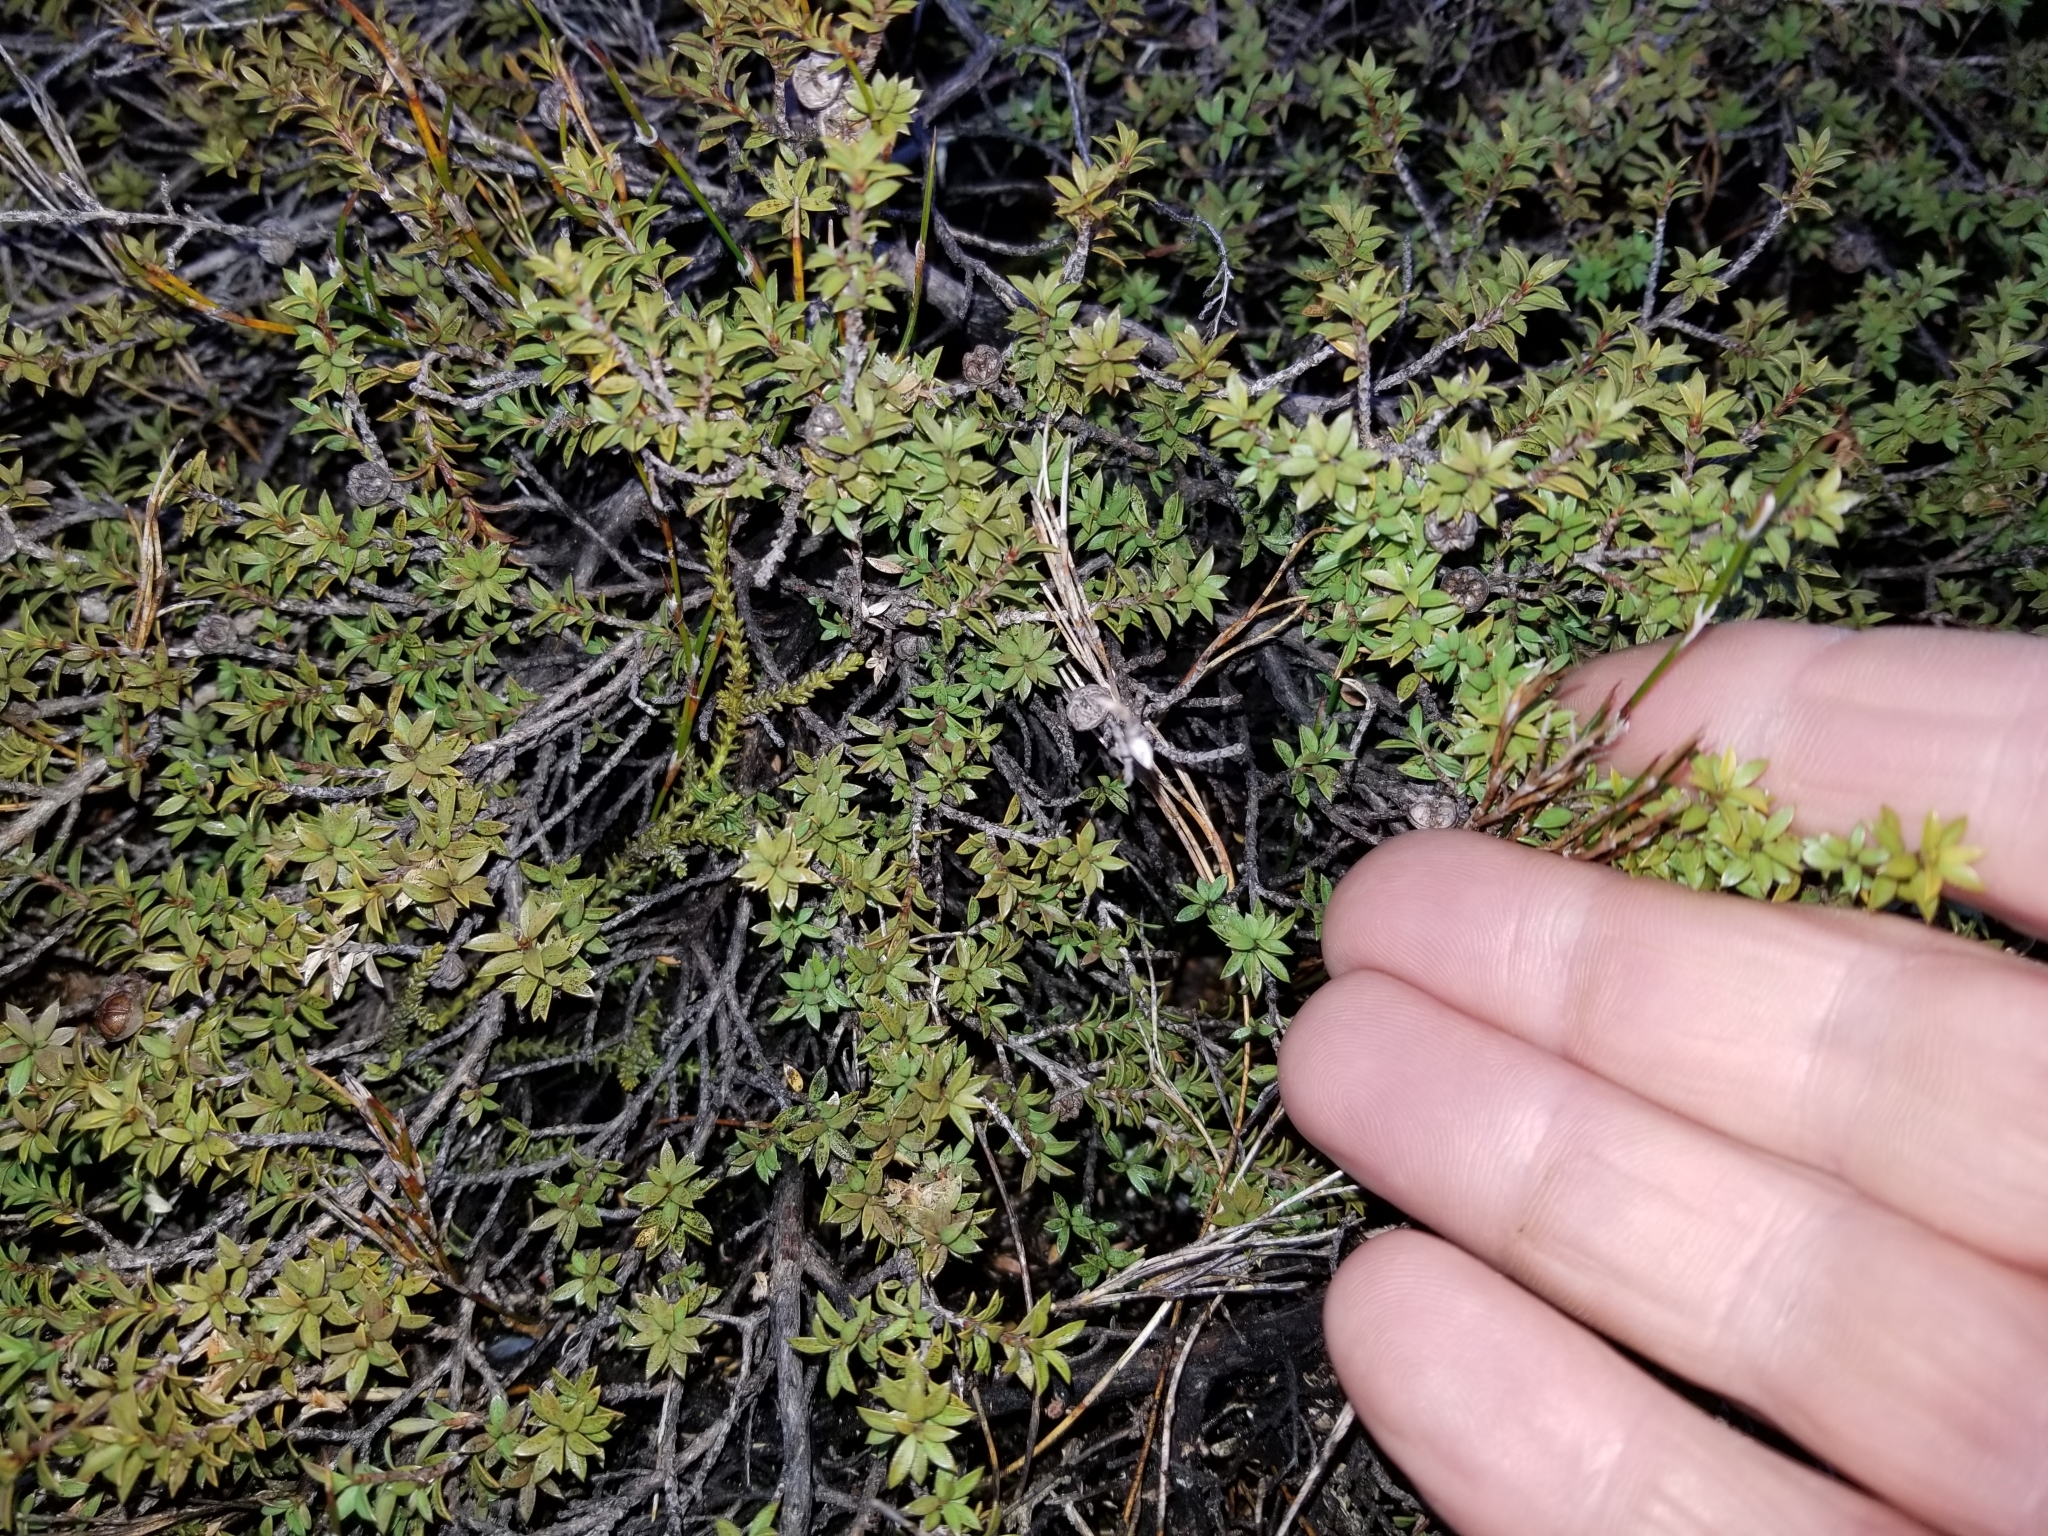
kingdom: Plantae
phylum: Tracheophyta
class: Magnoliopsida
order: Myrtales
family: Myrtaceae
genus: Leptospermum
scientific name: Leptospermum scoparium
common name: Broom tea-tree
